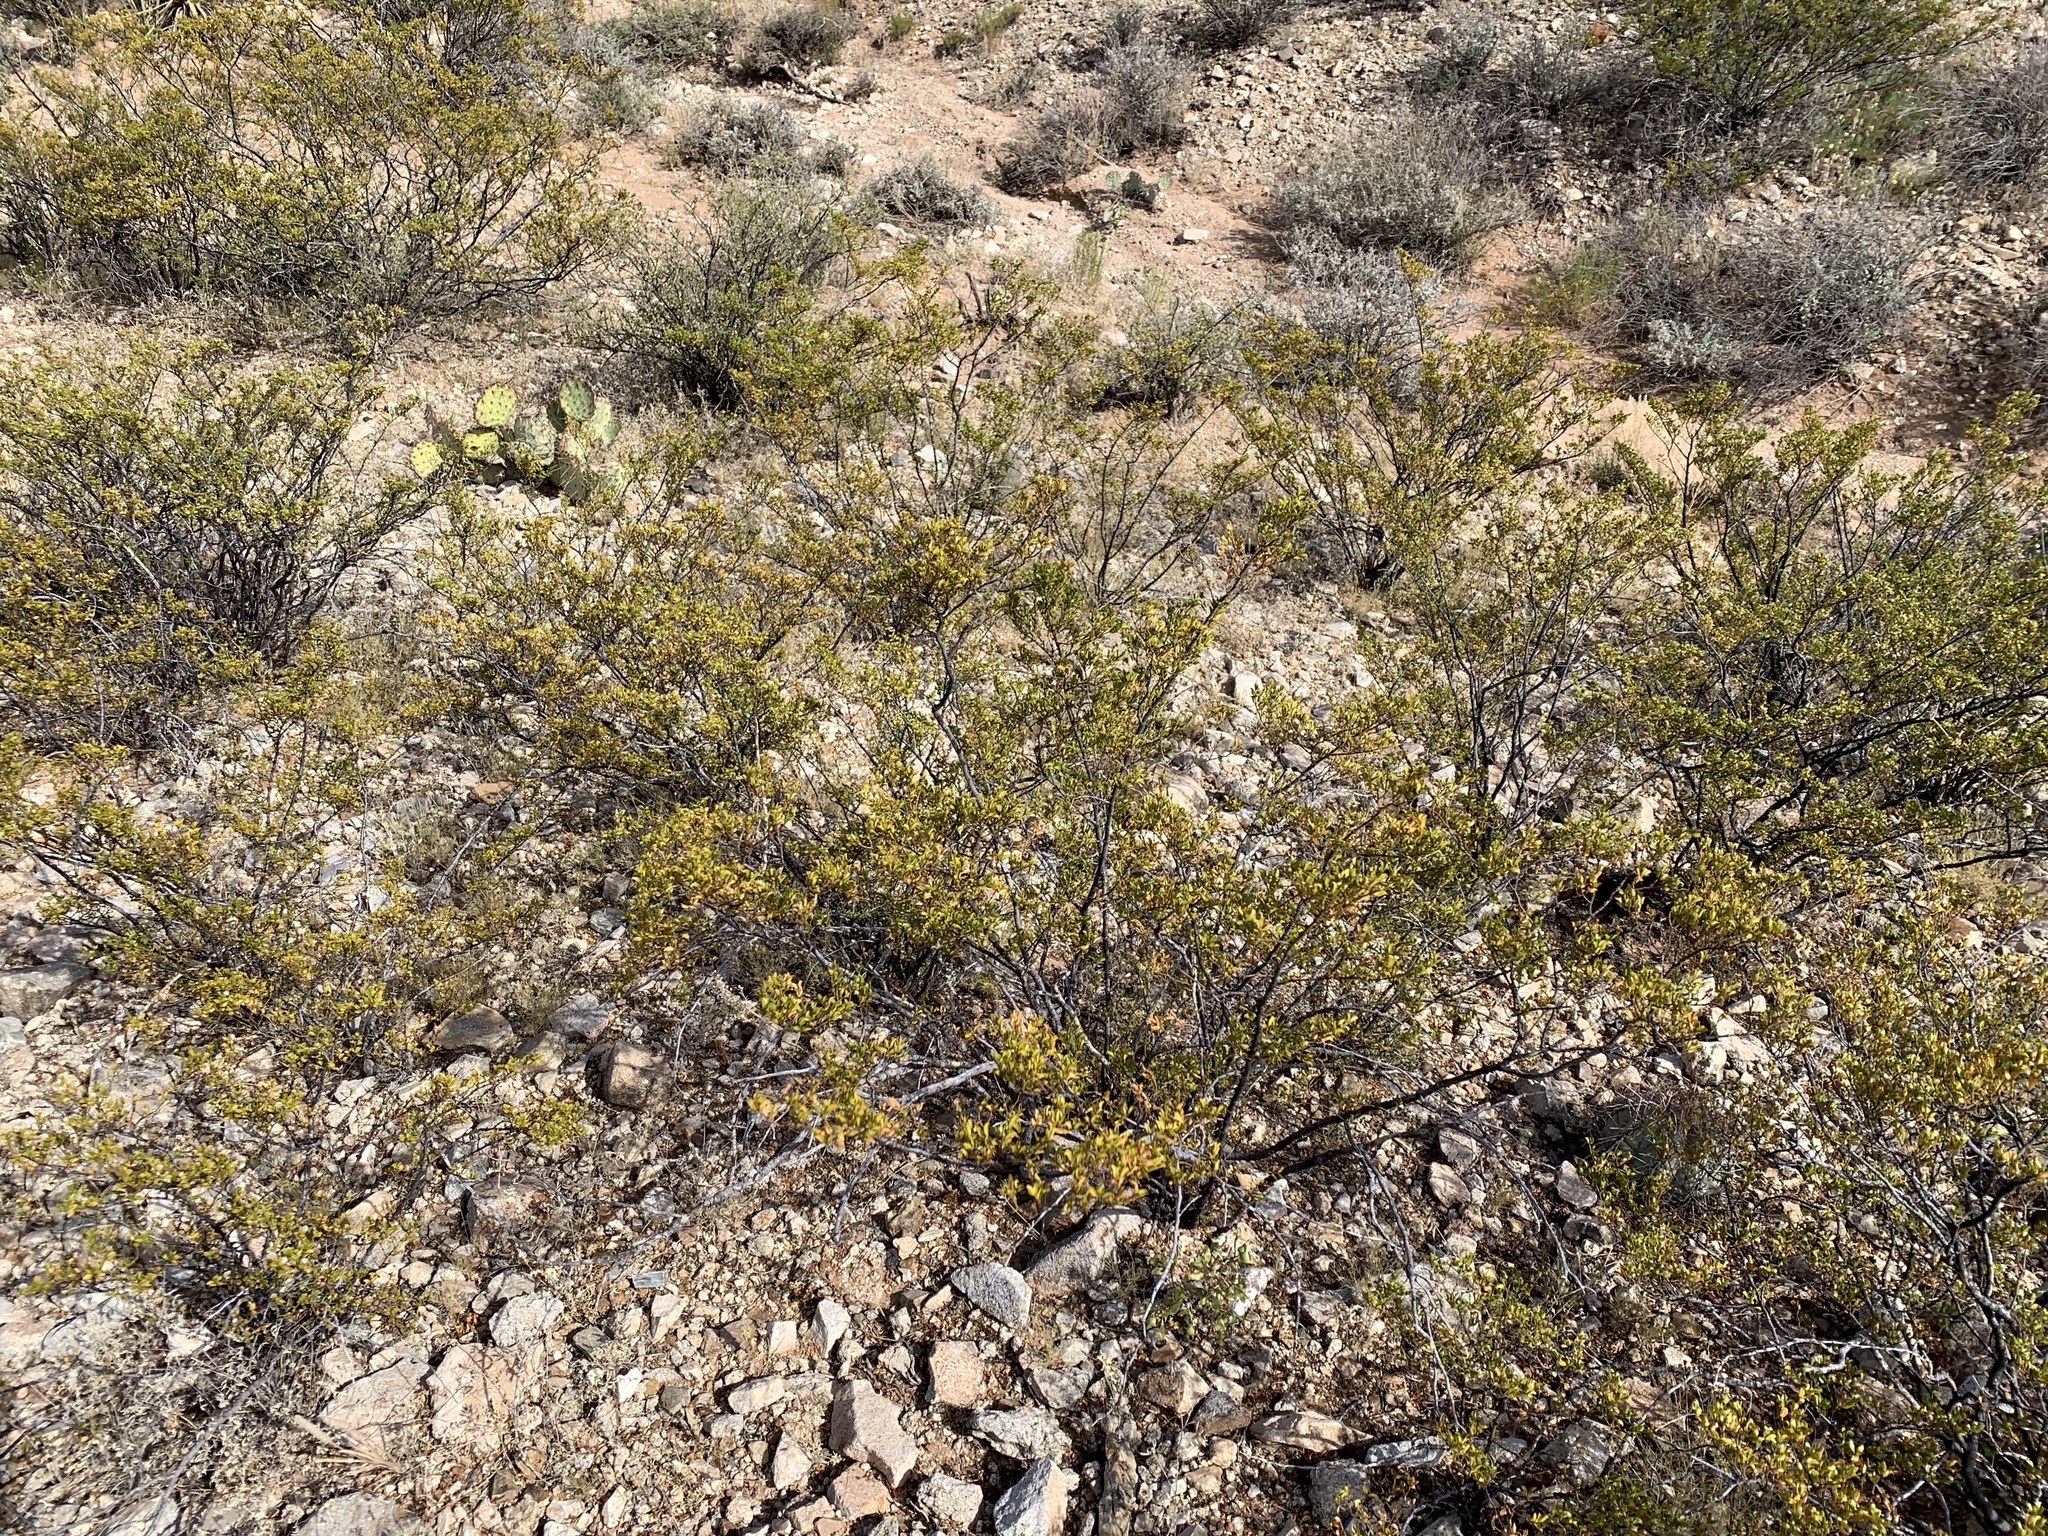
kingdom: Plantae
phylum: Tracheophyta
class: Magnoliopsida
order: Zygophyllales
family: Zygophyllaceae
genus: Larrea
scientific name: Larrea tridentata
